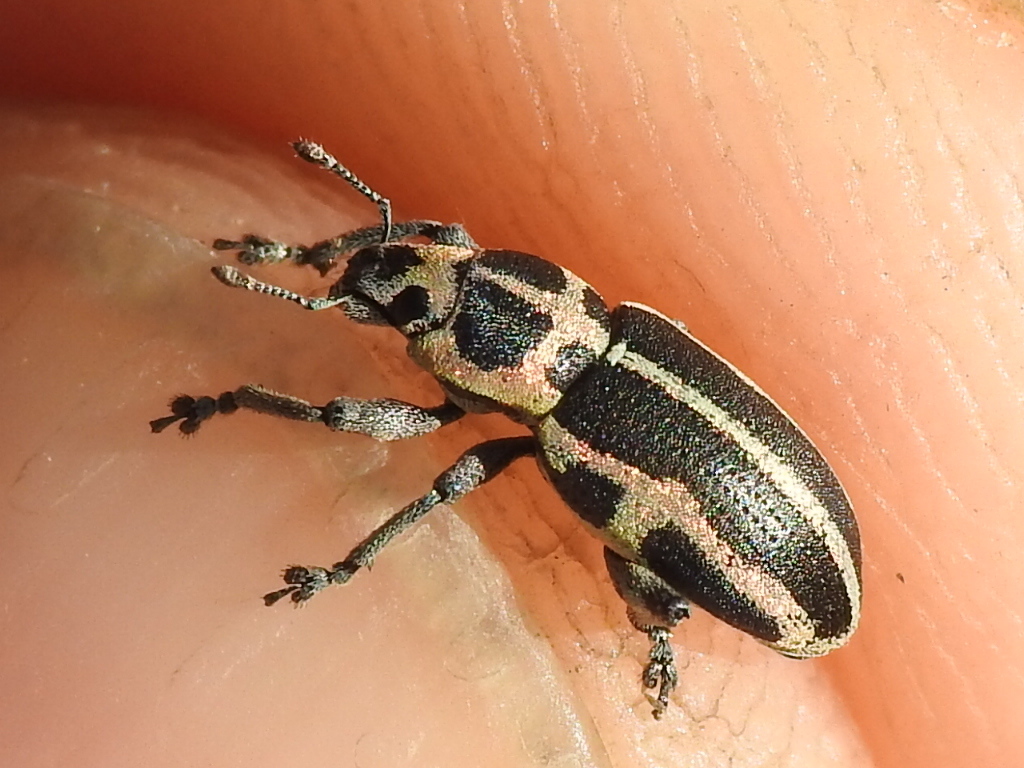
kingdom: Animalia
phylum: Arthropoda
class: Insecta
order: Coleoptera
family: Curculionidae
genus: Eudiagogus
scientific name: Eudiagogus pulcher
